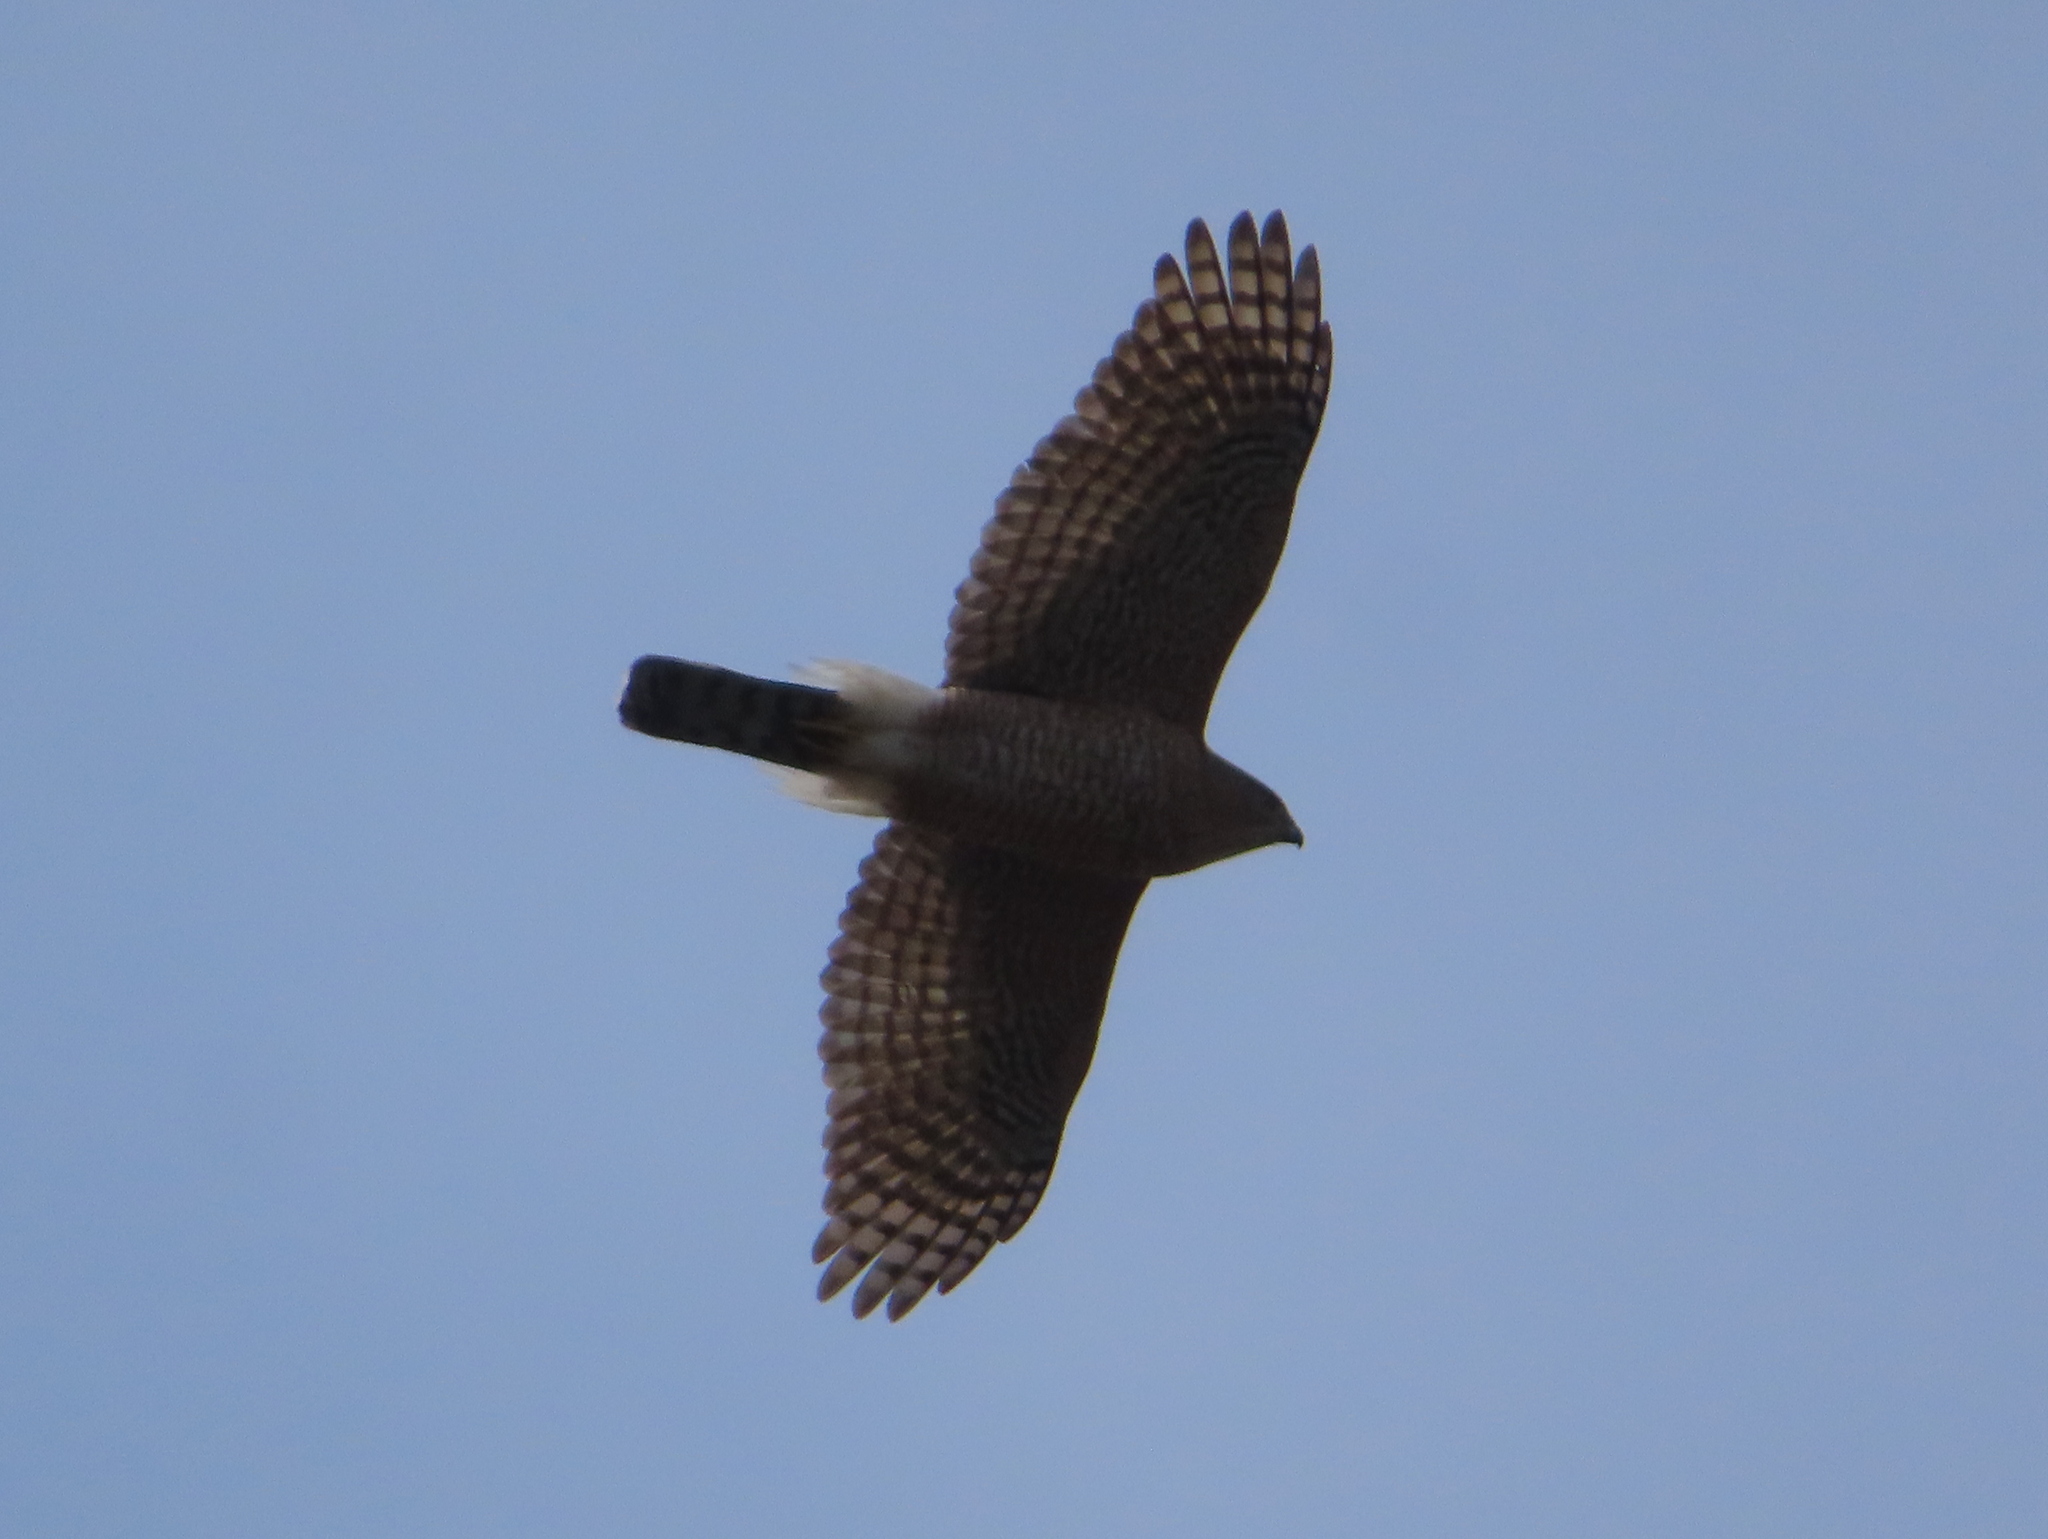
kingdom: Animalia
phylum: Chordata
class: Aves
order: Accipitriformes
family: Accipitridae
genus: Accipiter
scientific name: Accipiter cooperii
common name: Cooper's hawk
